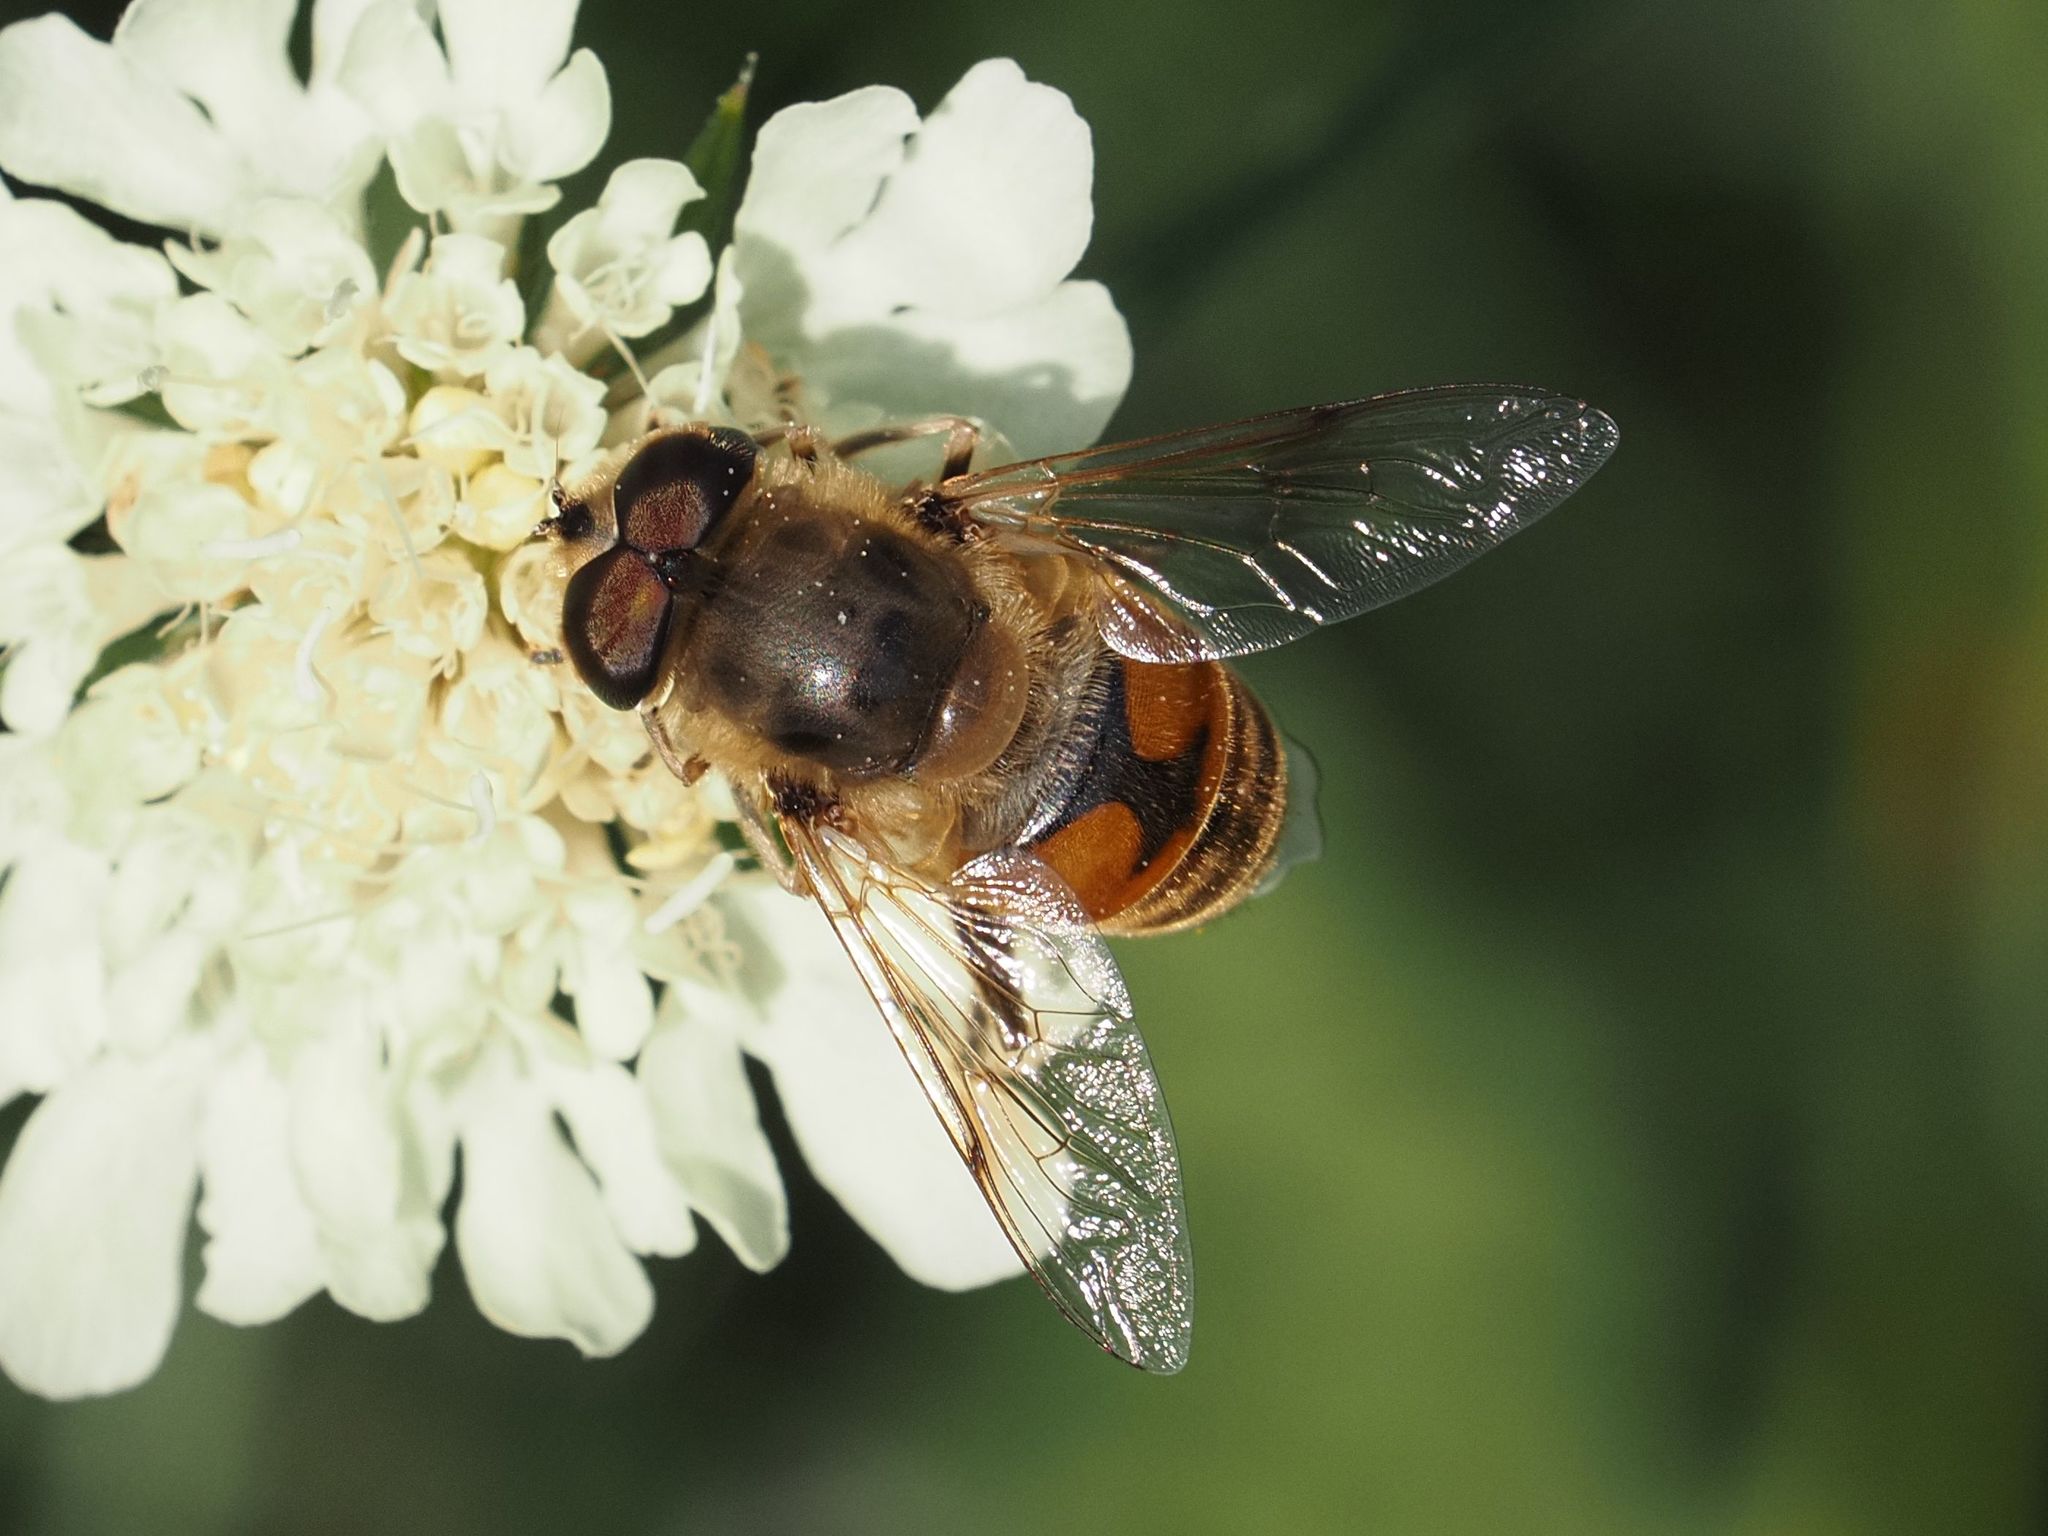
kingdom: Animalia
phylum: Arthropoda
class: Insecta
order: Diptera
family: Syrphidae
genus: Eristalis
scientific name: Eristalis tenax
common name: Drone fly
